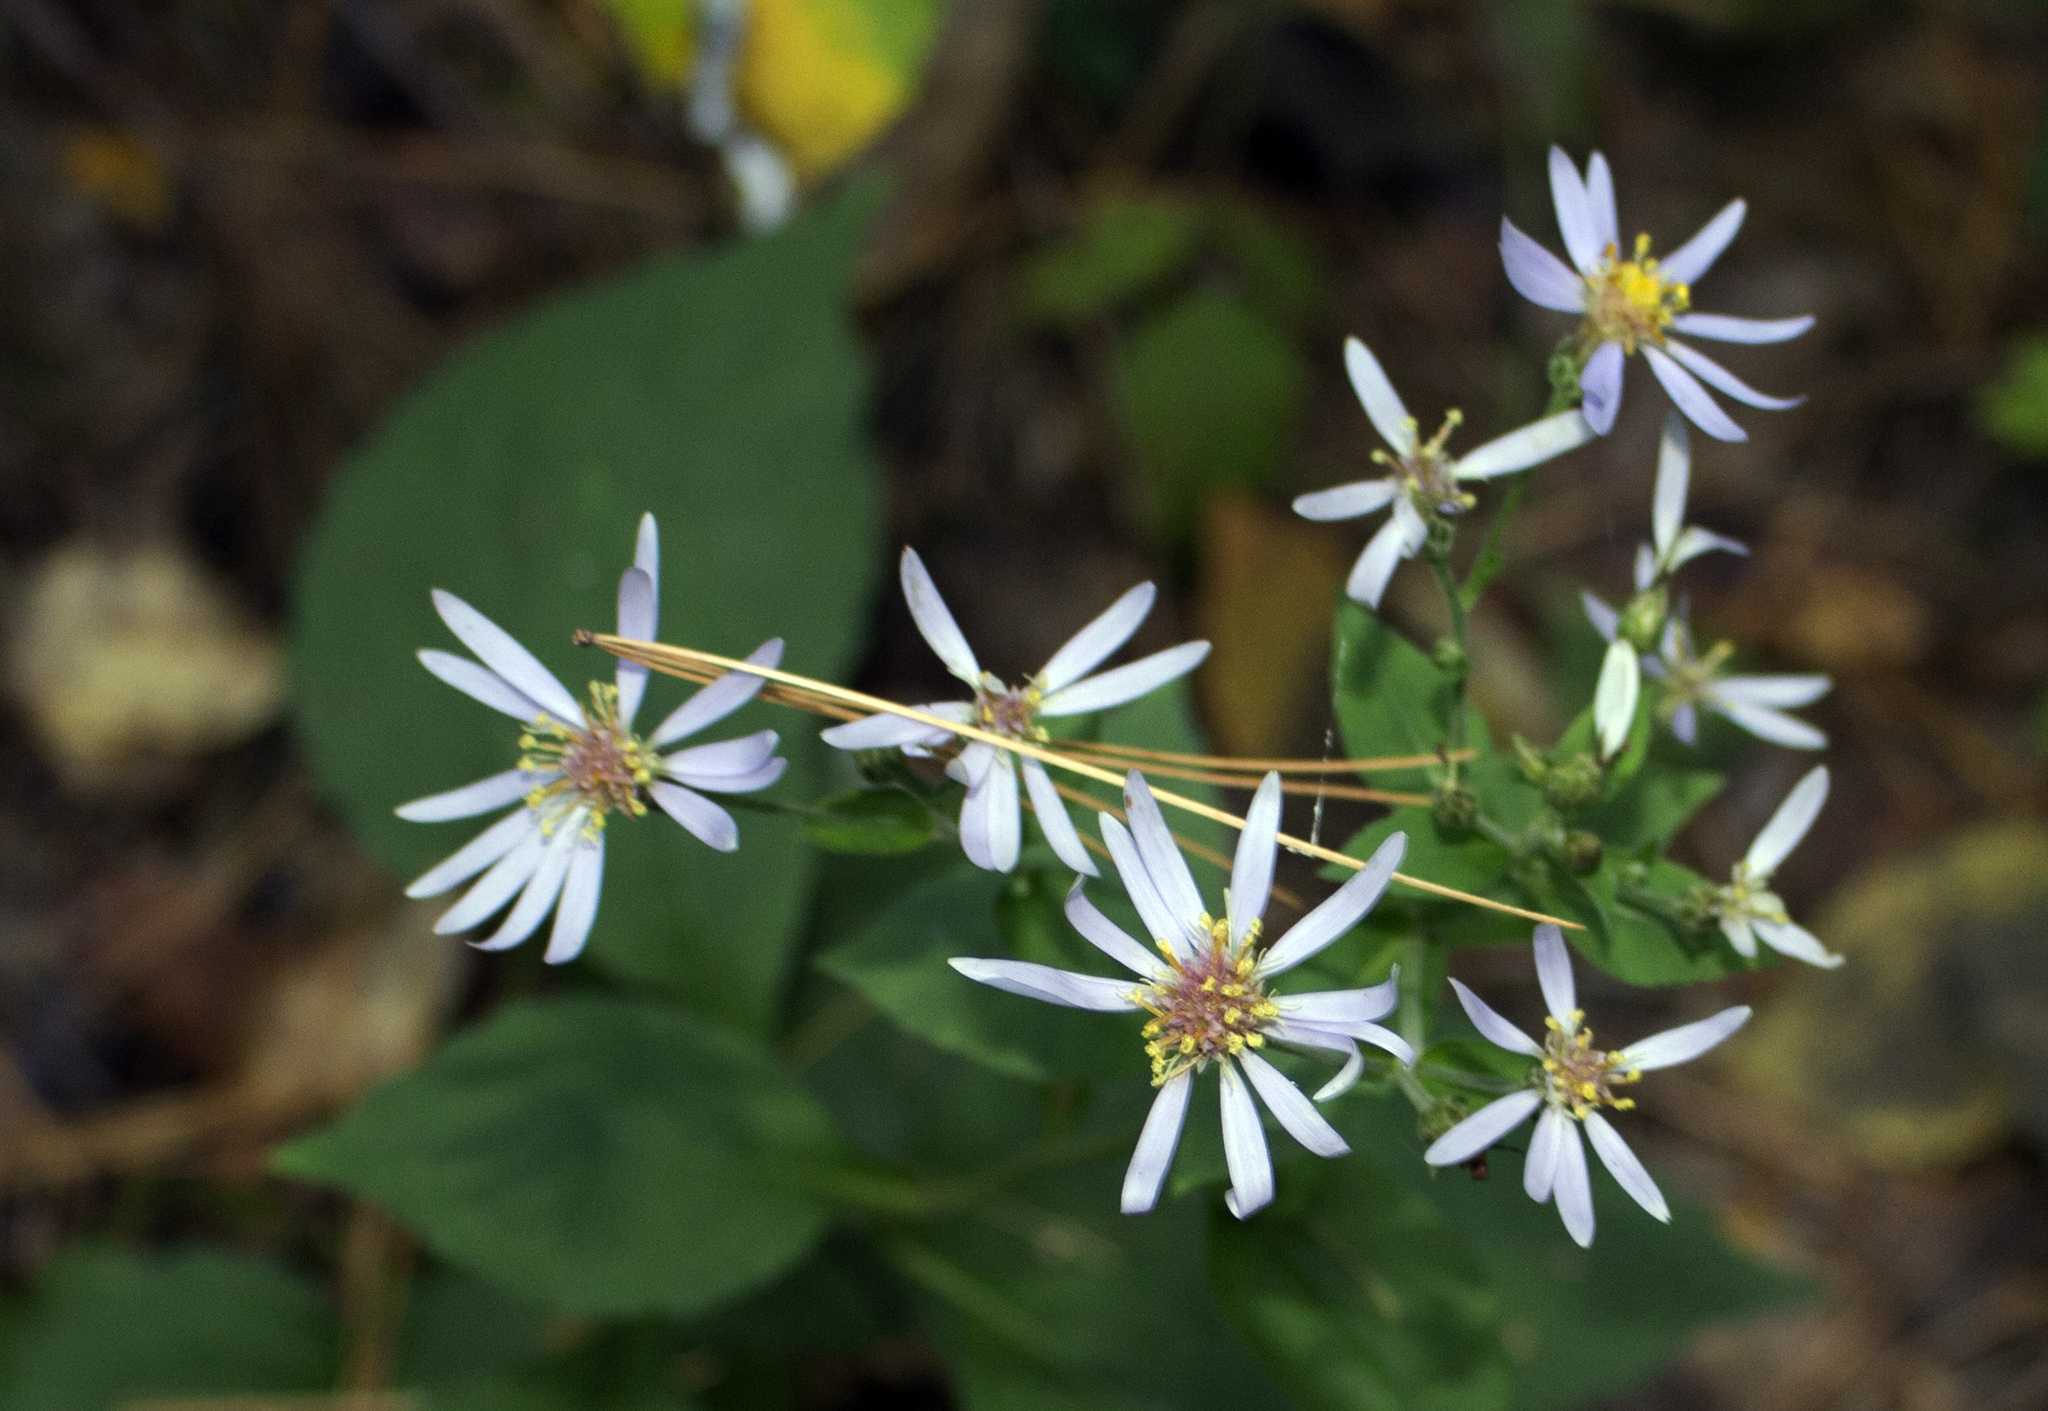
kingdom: Plantae
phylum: Tracheophyta
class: Magnoliopsida
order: Asterales
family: Asteraceae
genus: Eurybia
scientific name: Eurybia macrophylla
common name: Big-leaved aster
